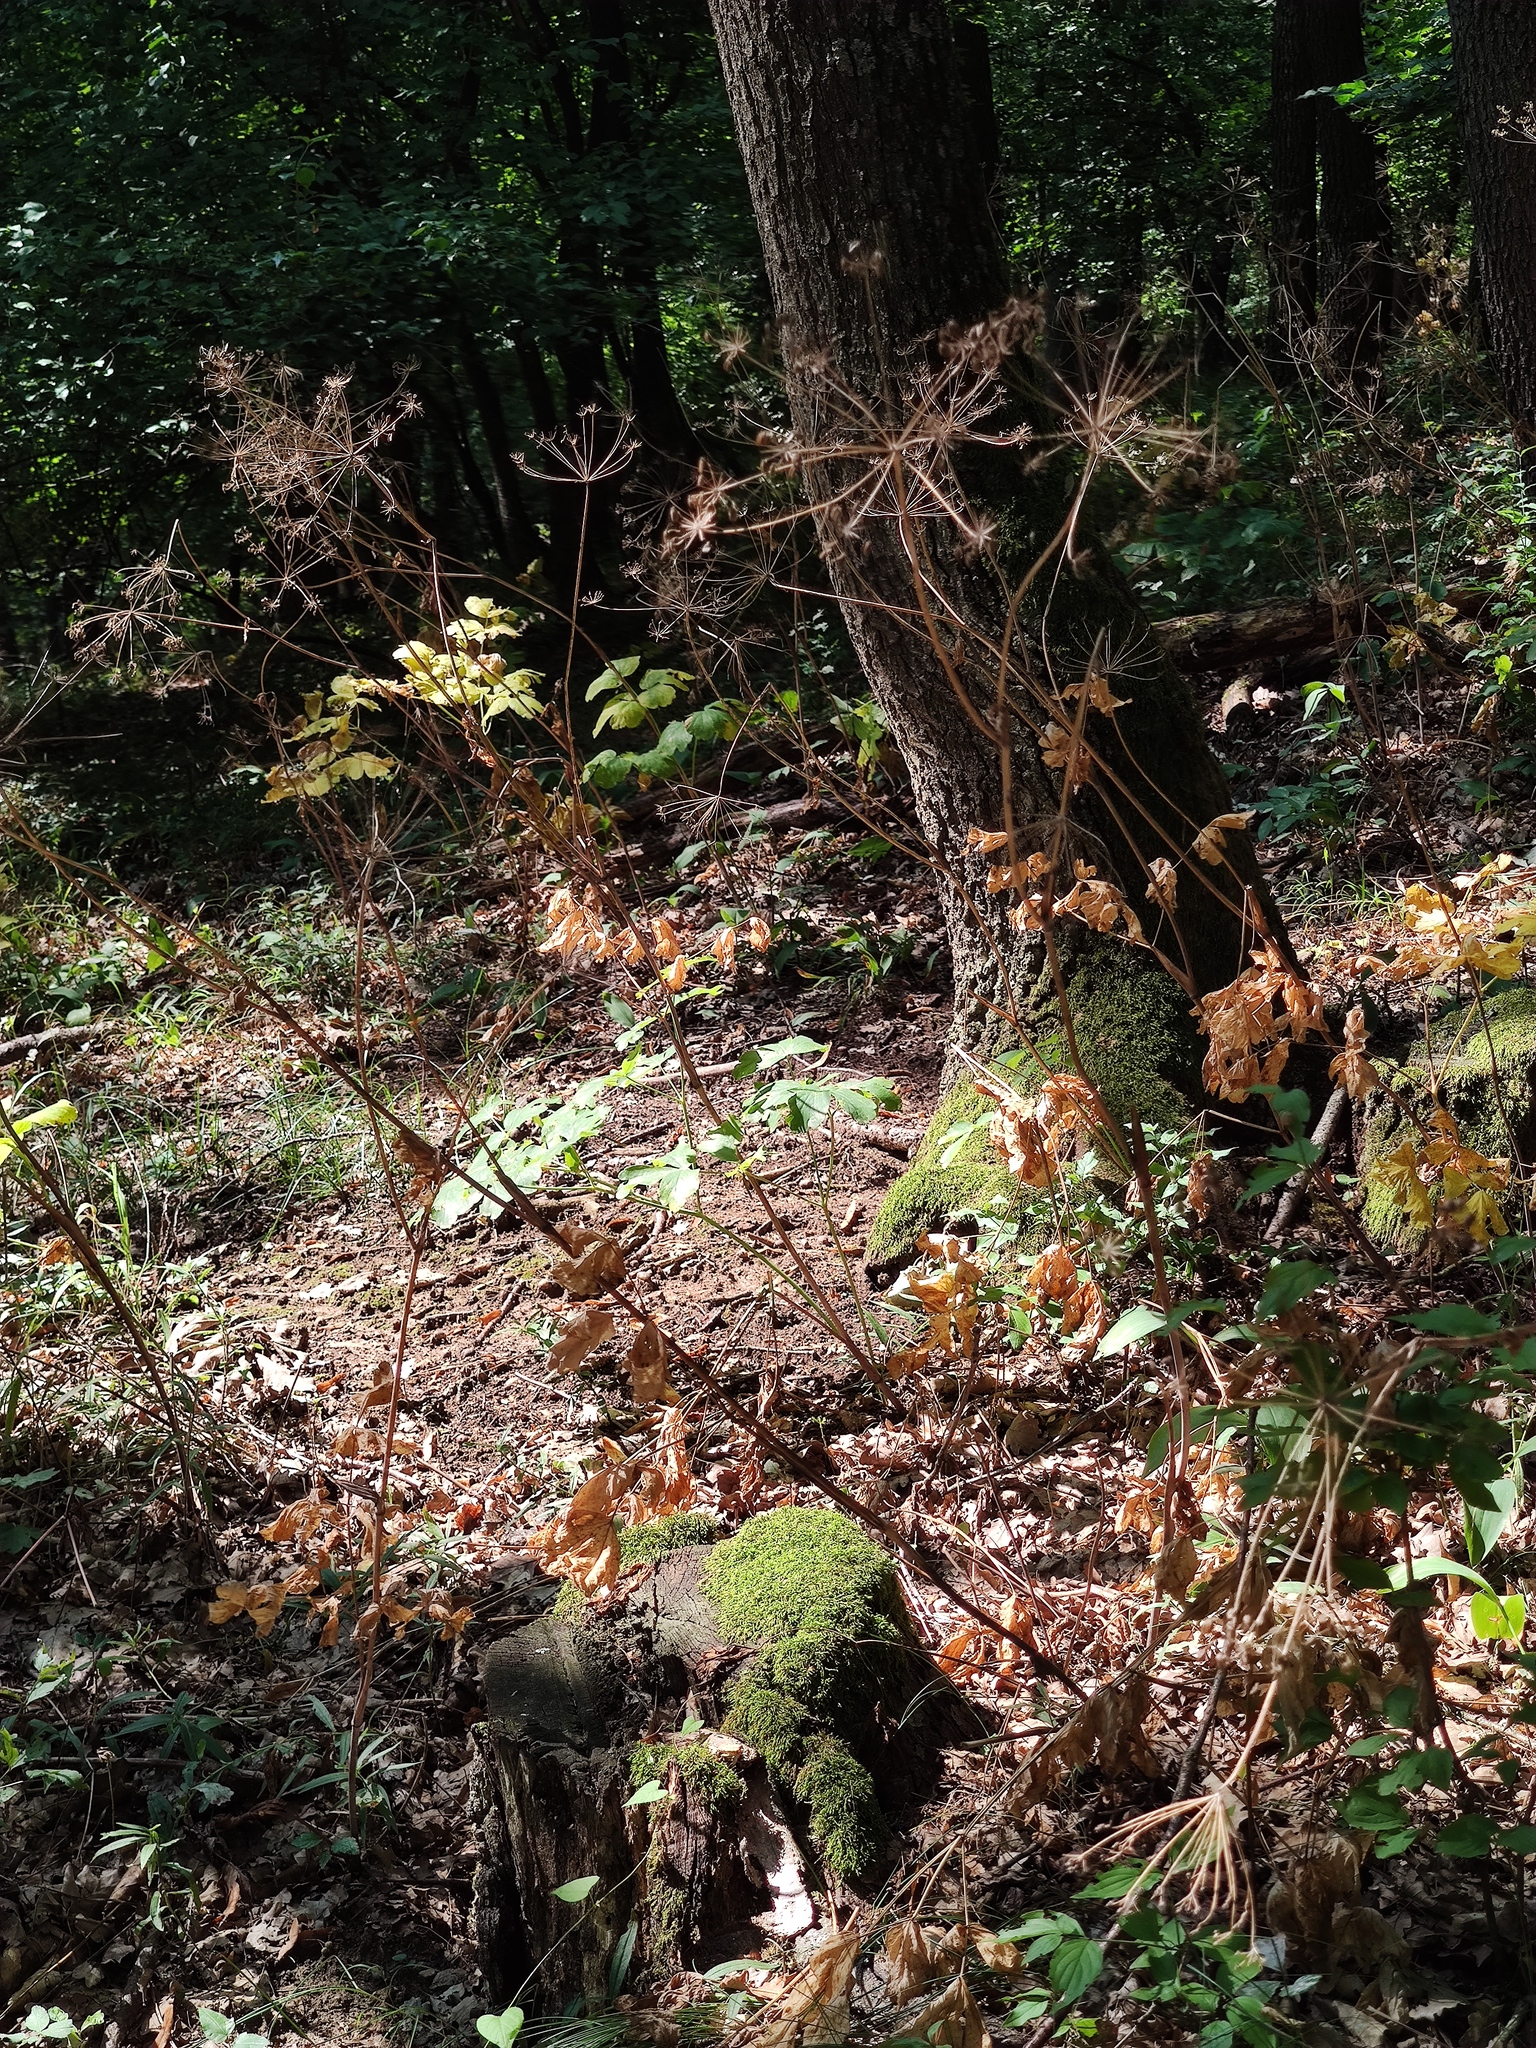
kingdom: Plantae
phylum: Tracheophyta
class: Magnoliopsida
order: Apiales
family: Apiaceae
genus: Laser
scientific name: Laser trilobum
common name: Laser
